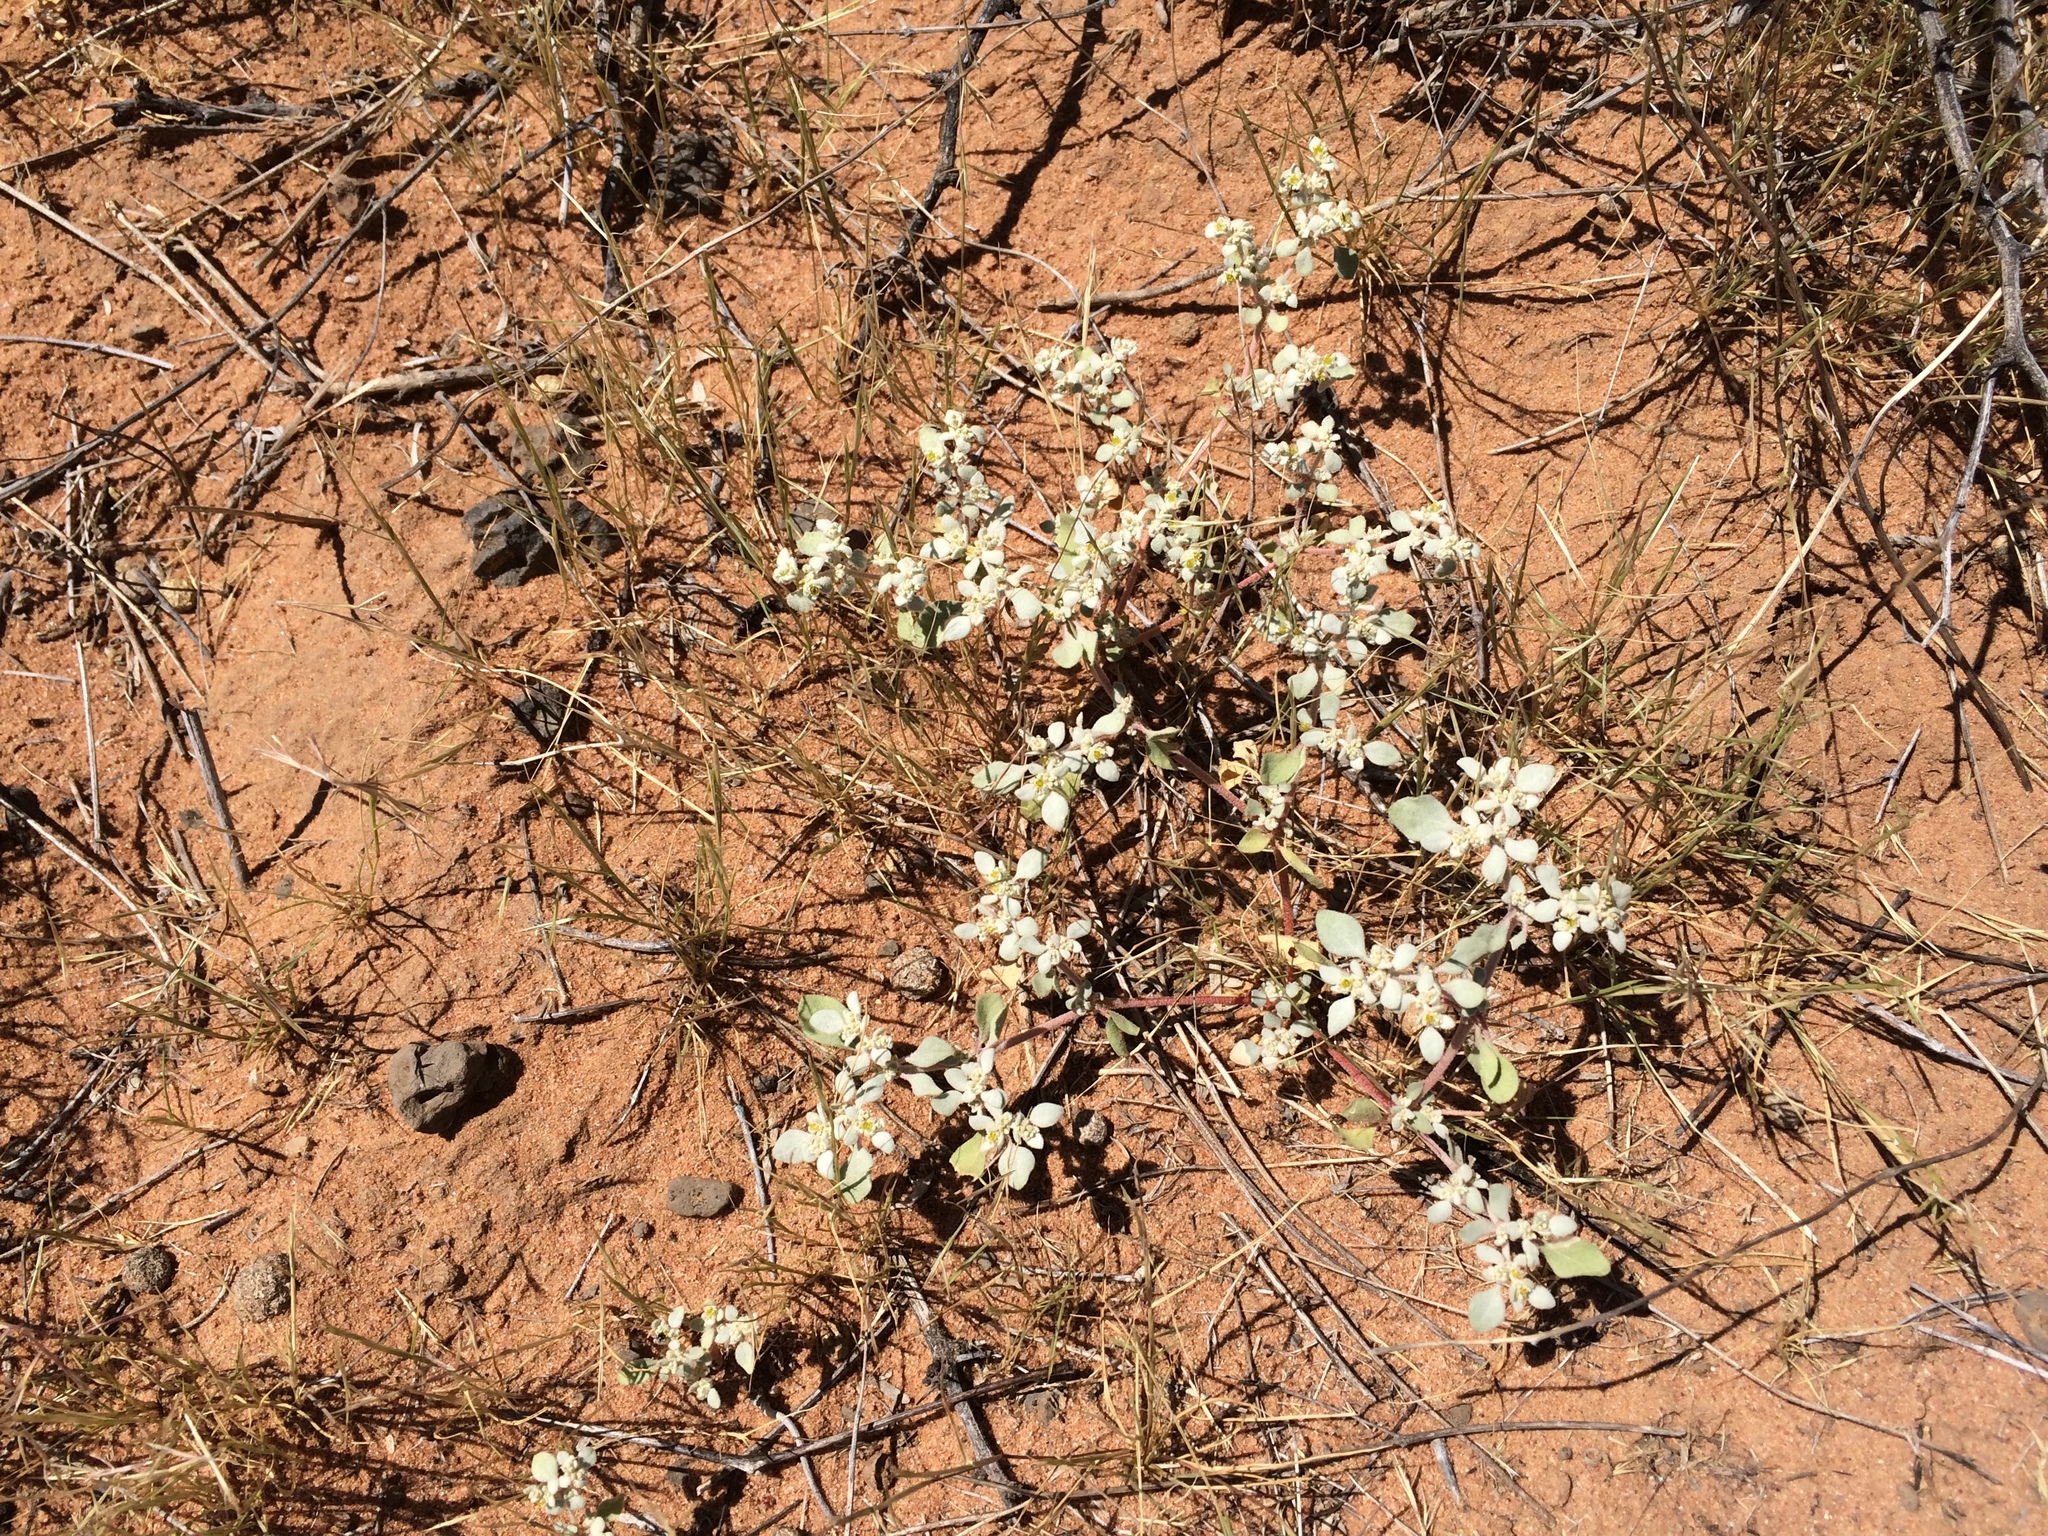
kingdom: Plantae
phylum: Tracheophyta
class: Magnoliopsida
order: Caryophyllales
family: Amaranthaceae
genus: Tidestromia
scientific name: Tidestromia lanuginosa
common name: Woolly tidestromia
